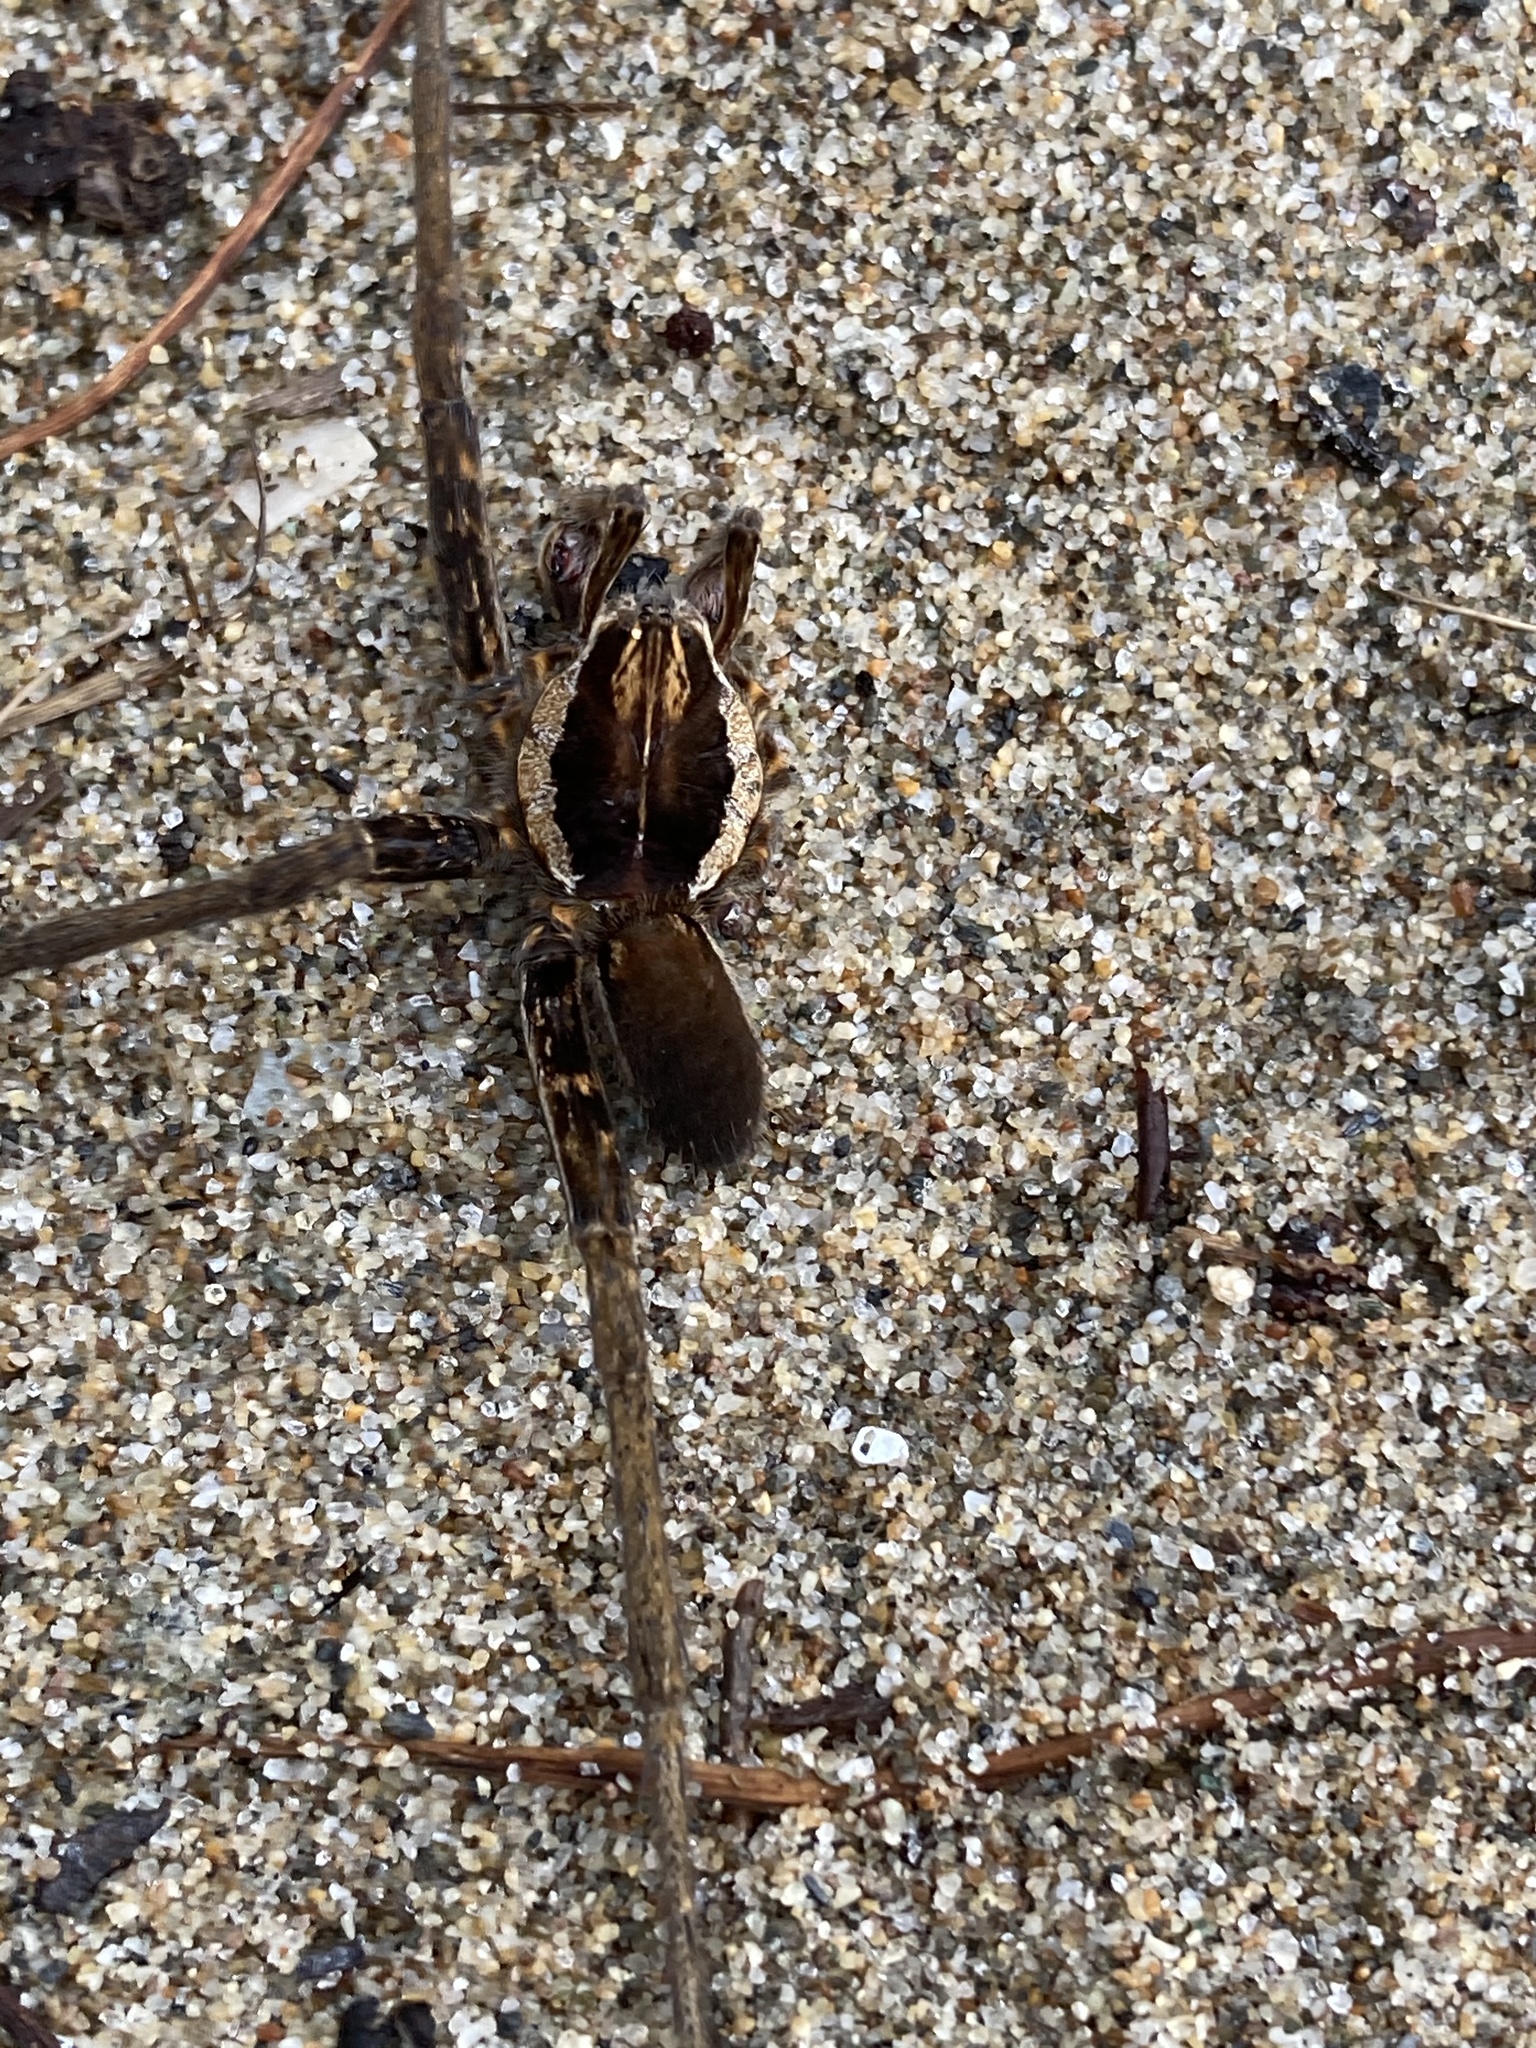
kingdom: Animalia
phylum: Arthropoda
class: Arachnida
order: Araneae
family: Ctenidae
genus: Ancylometes
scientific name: Ancylometes bogotensis
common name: Wandering spiders
